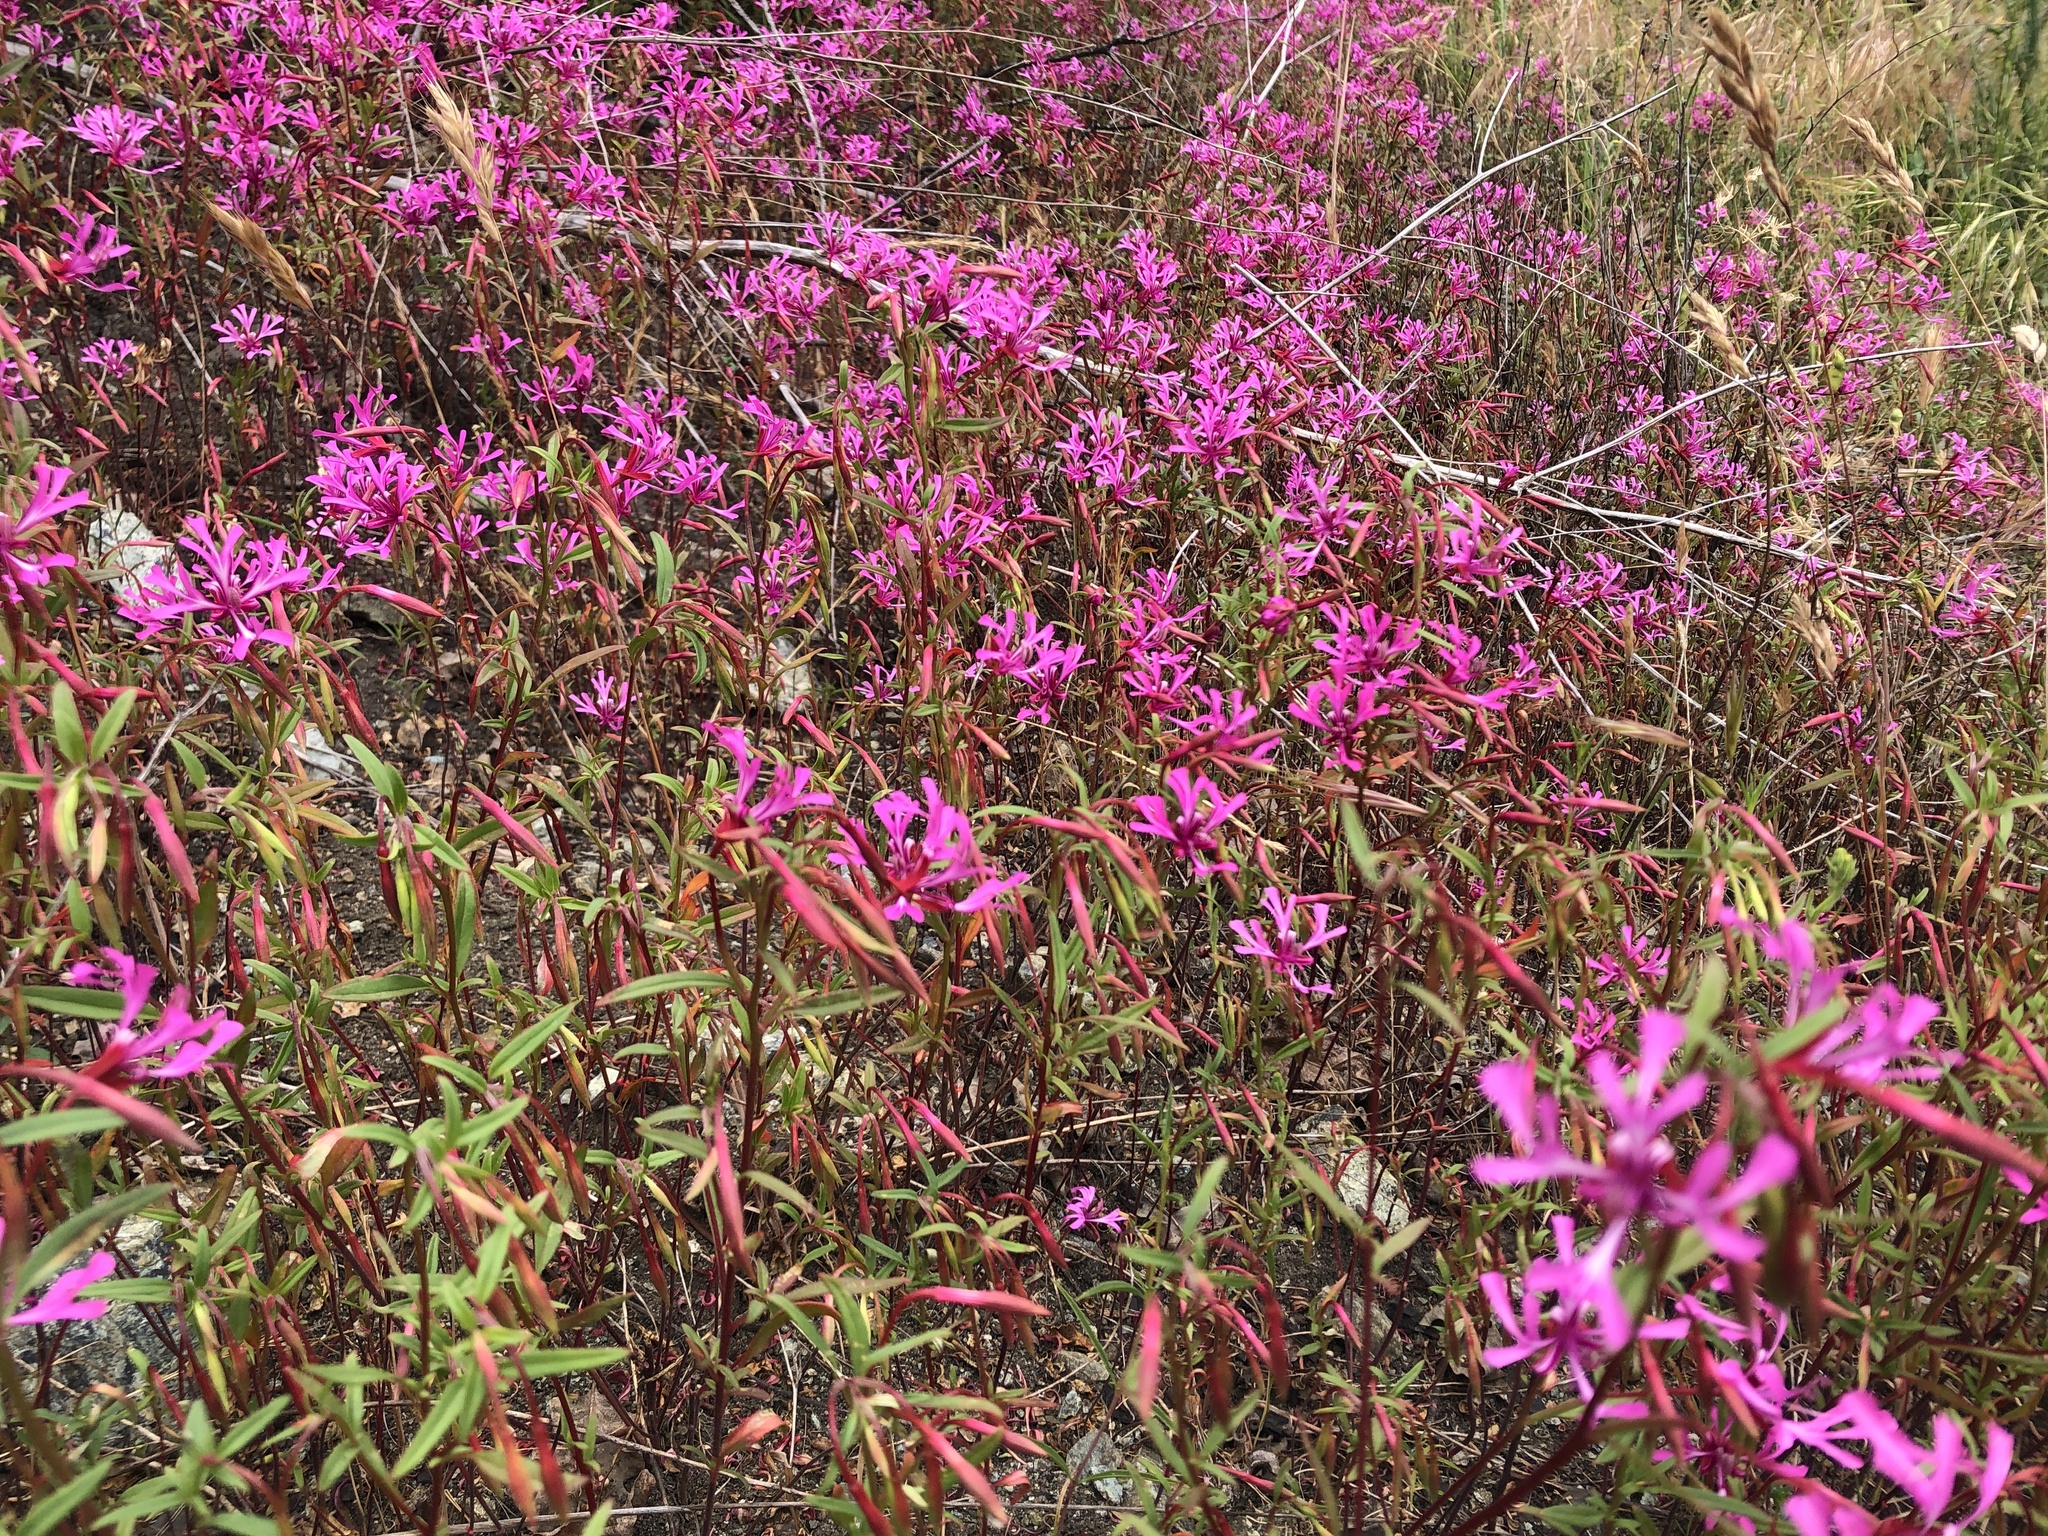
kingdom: Plantae
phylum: Tracheophyta
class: Magnoliopsida
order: Myrtales
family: Onagraceae
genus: Clarkia
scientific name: Clarkia concinna
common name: Red-ribbons
